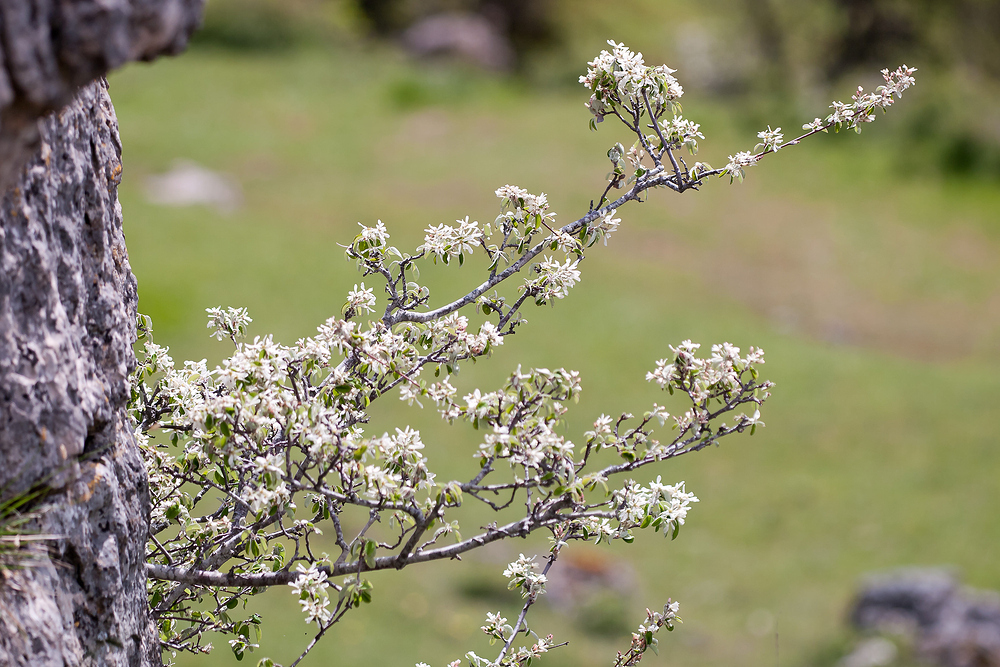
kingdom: Plantae
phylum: Tracheophyta
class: Magnoliopsida
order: Rosales
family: Rosaceae
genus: Amelanchier
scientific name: Amelanchier ovalis
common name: Serviceberry
